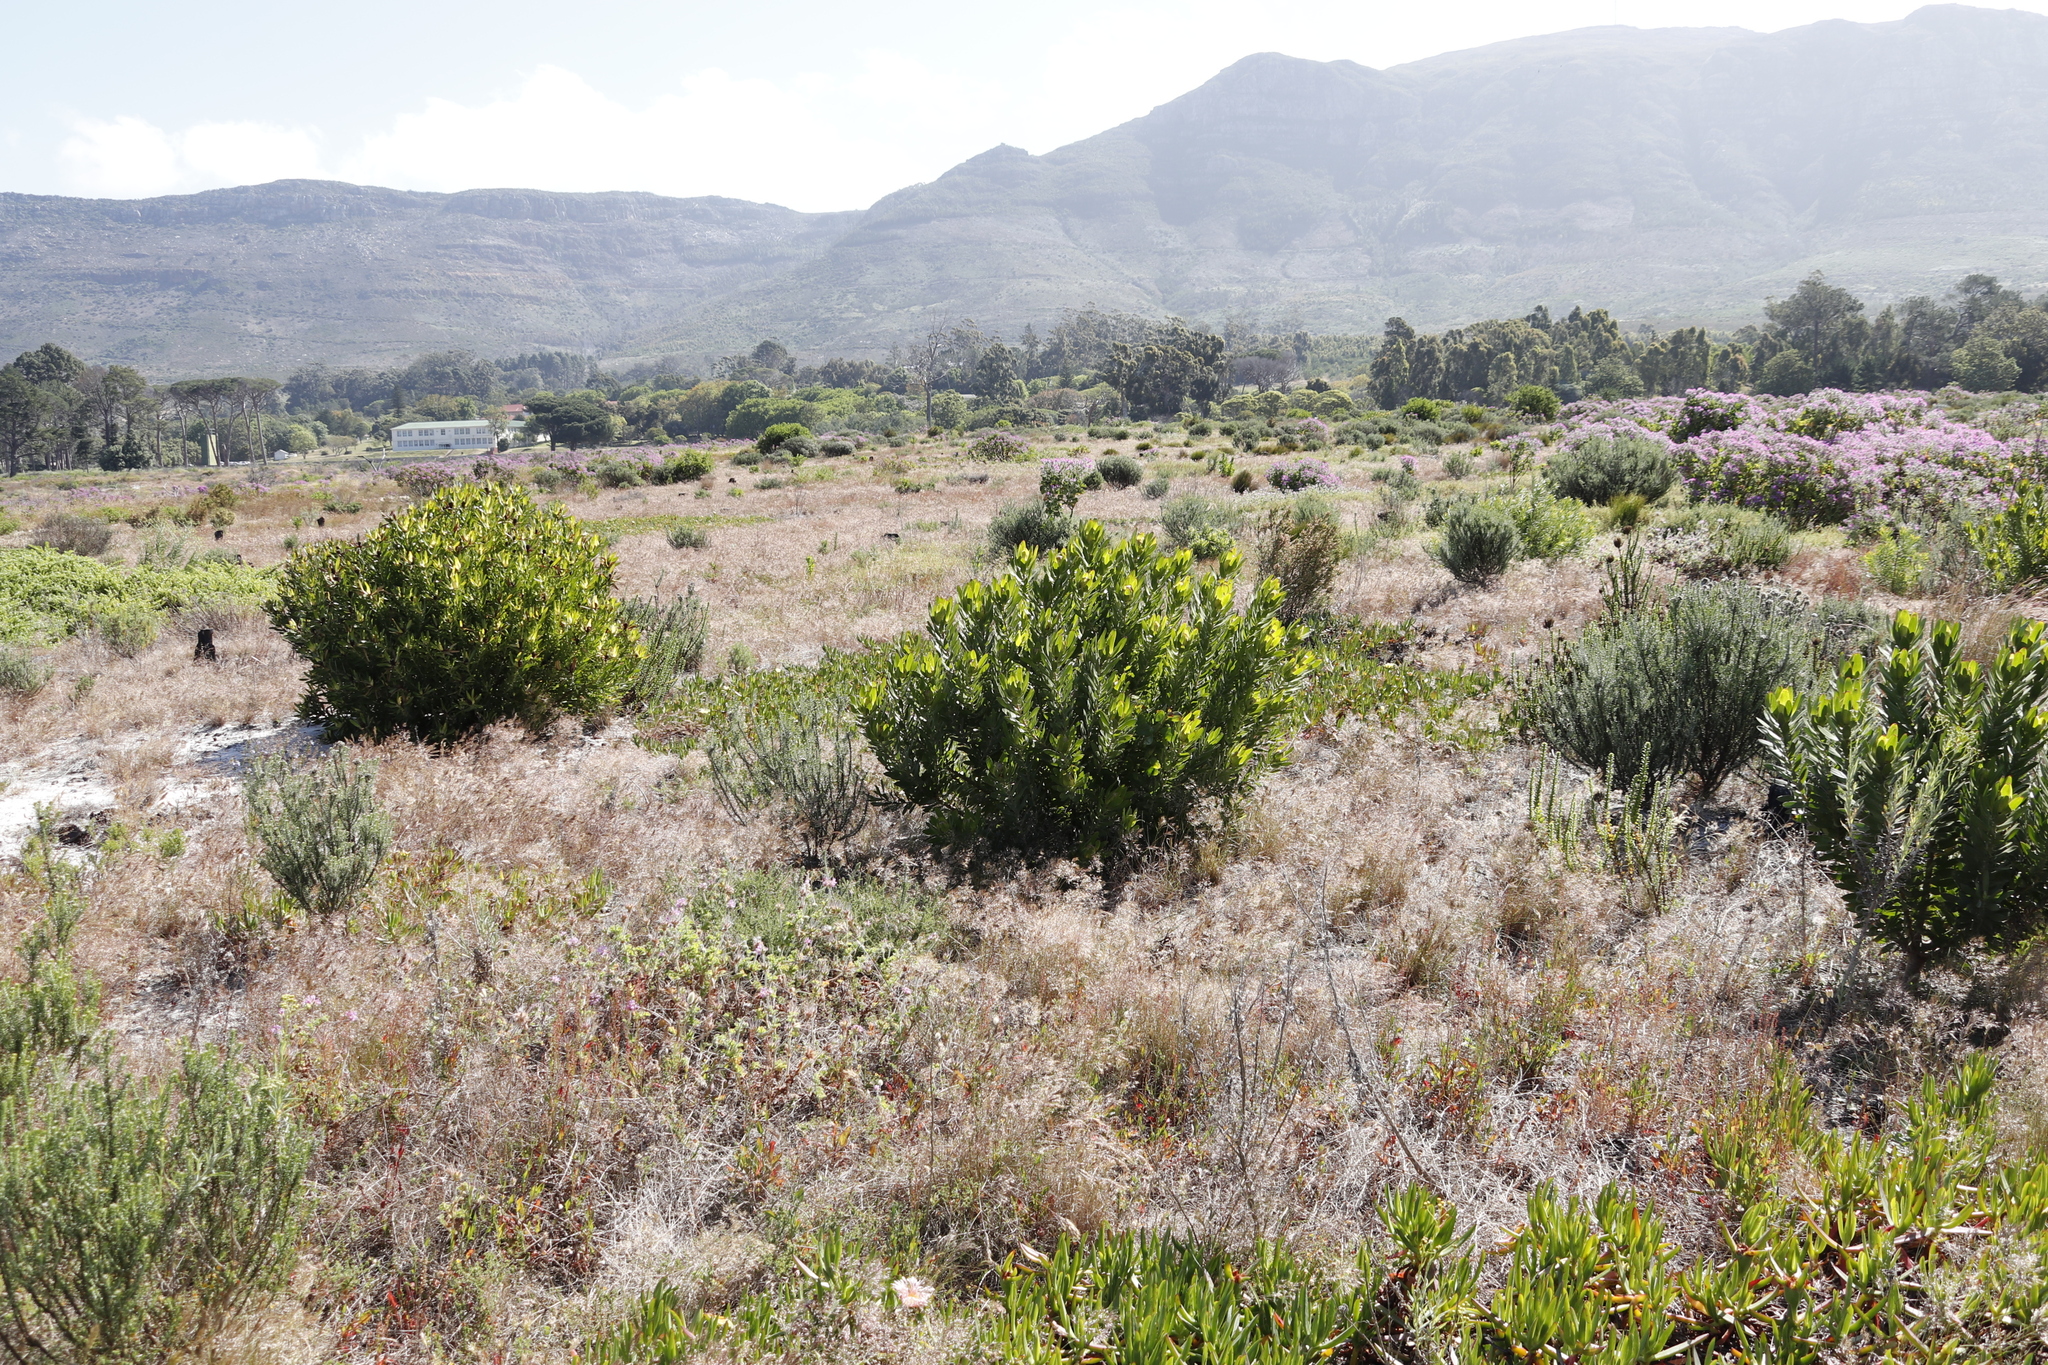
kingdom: Plantae
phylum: Tracheophyta
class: Magnoliopsida
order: Proteales
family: Proteaceae
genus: Leucadendron
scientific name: Leucadendron laureolum
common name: Golden sunshinebush
